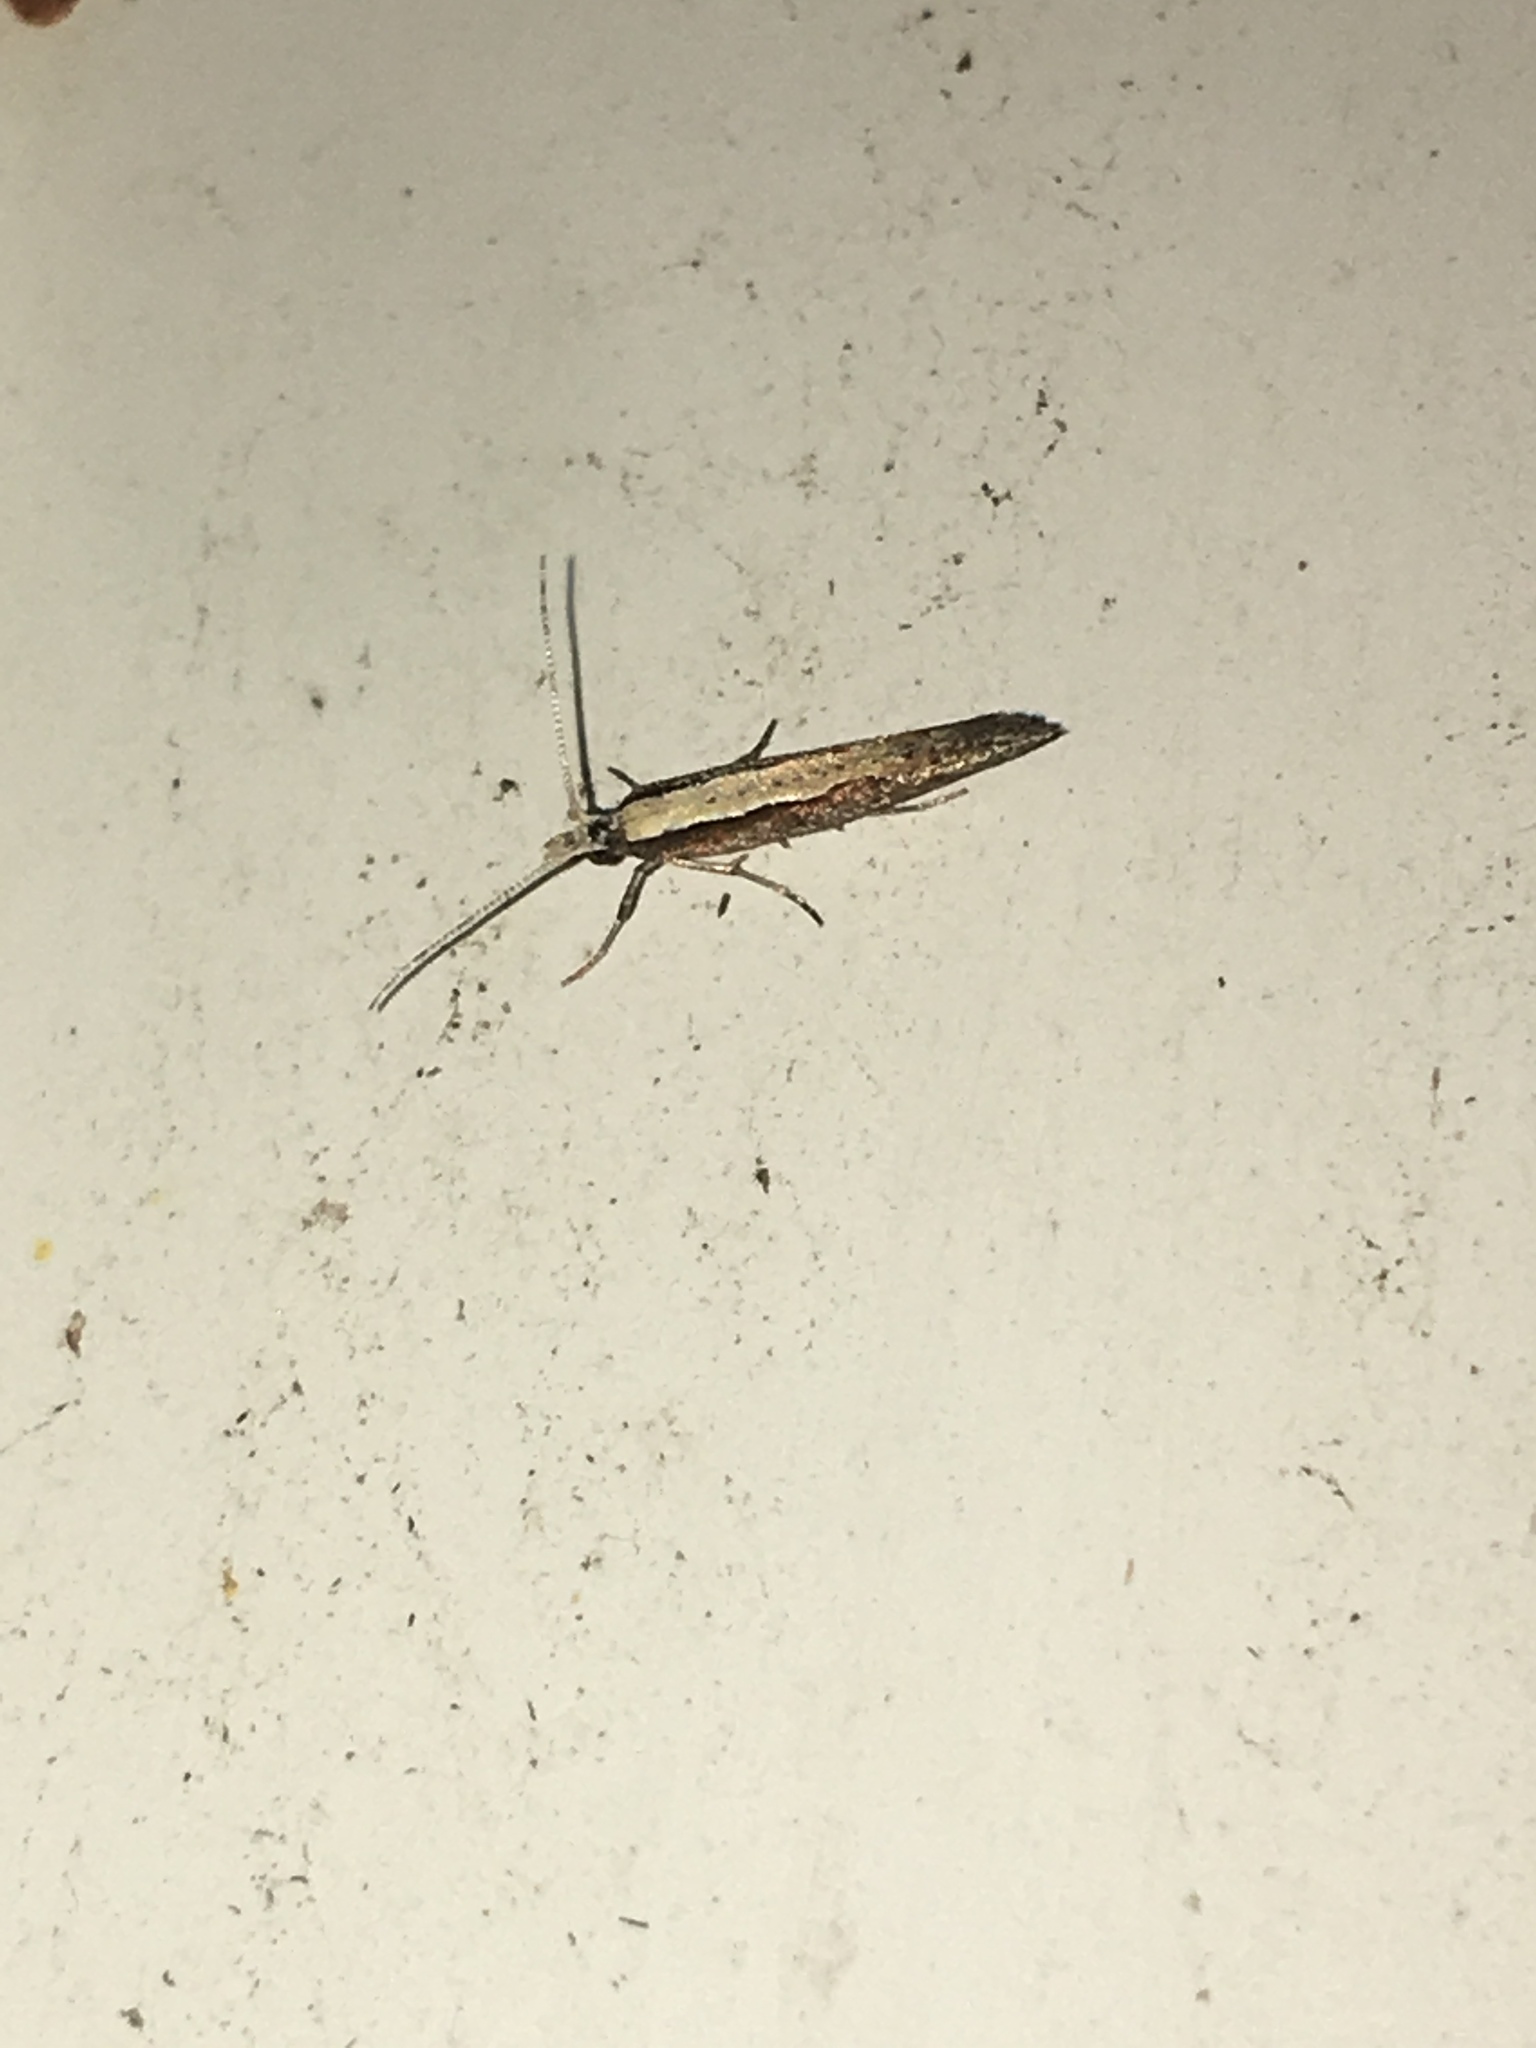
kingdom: Animalia
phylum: Arthropoda
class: Insecta
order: Lepidoptera
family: Plutellidae
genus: Plutella
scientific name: Plutella xylostella
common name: Diamond-back moth
